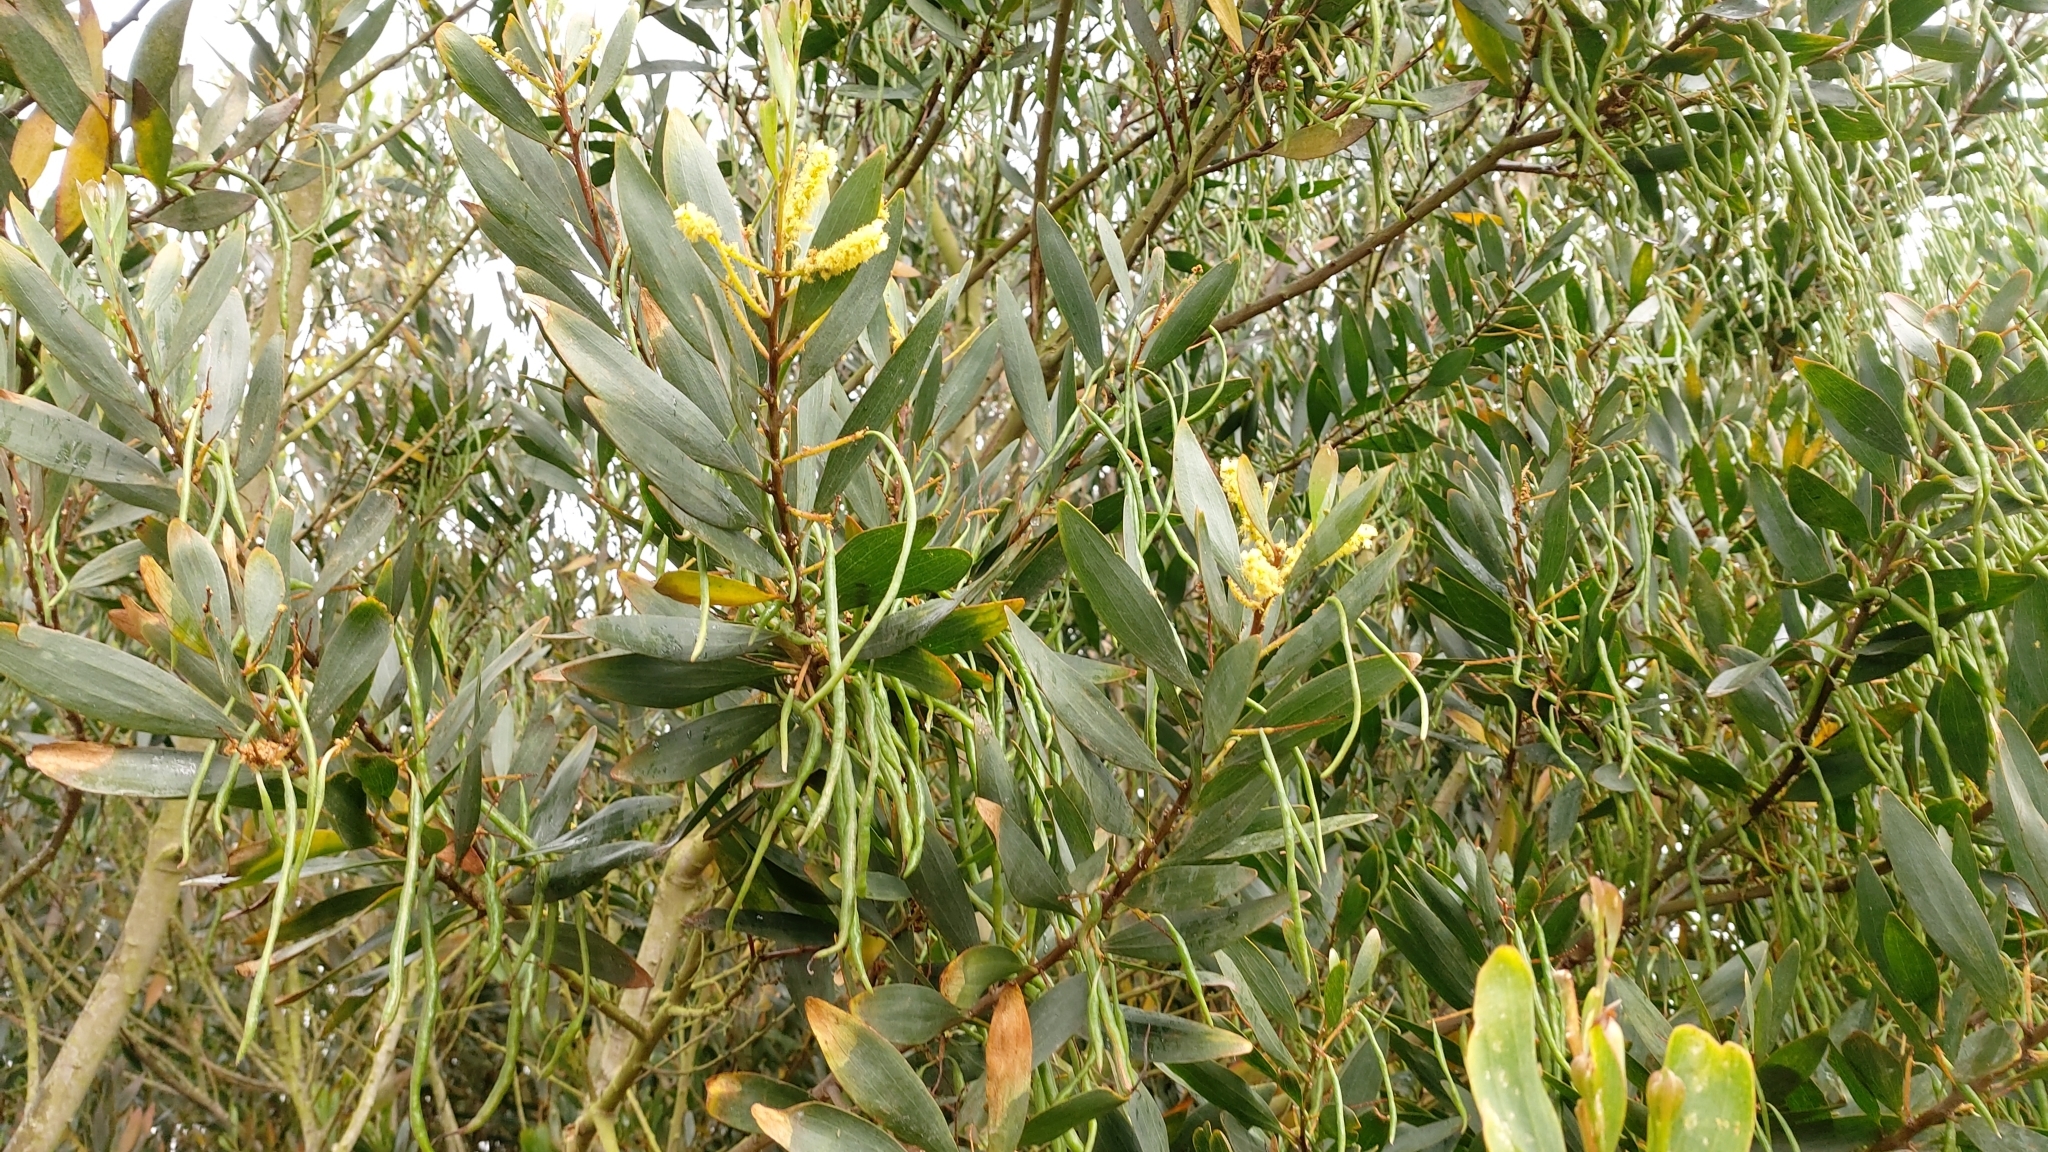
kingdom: Plantae
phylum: Tracheophyta
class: Magnoliopsida
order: Fabales
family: Fabaceae
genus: Acacia
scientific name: Acacia longifolia
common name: Sydney golden wattle
